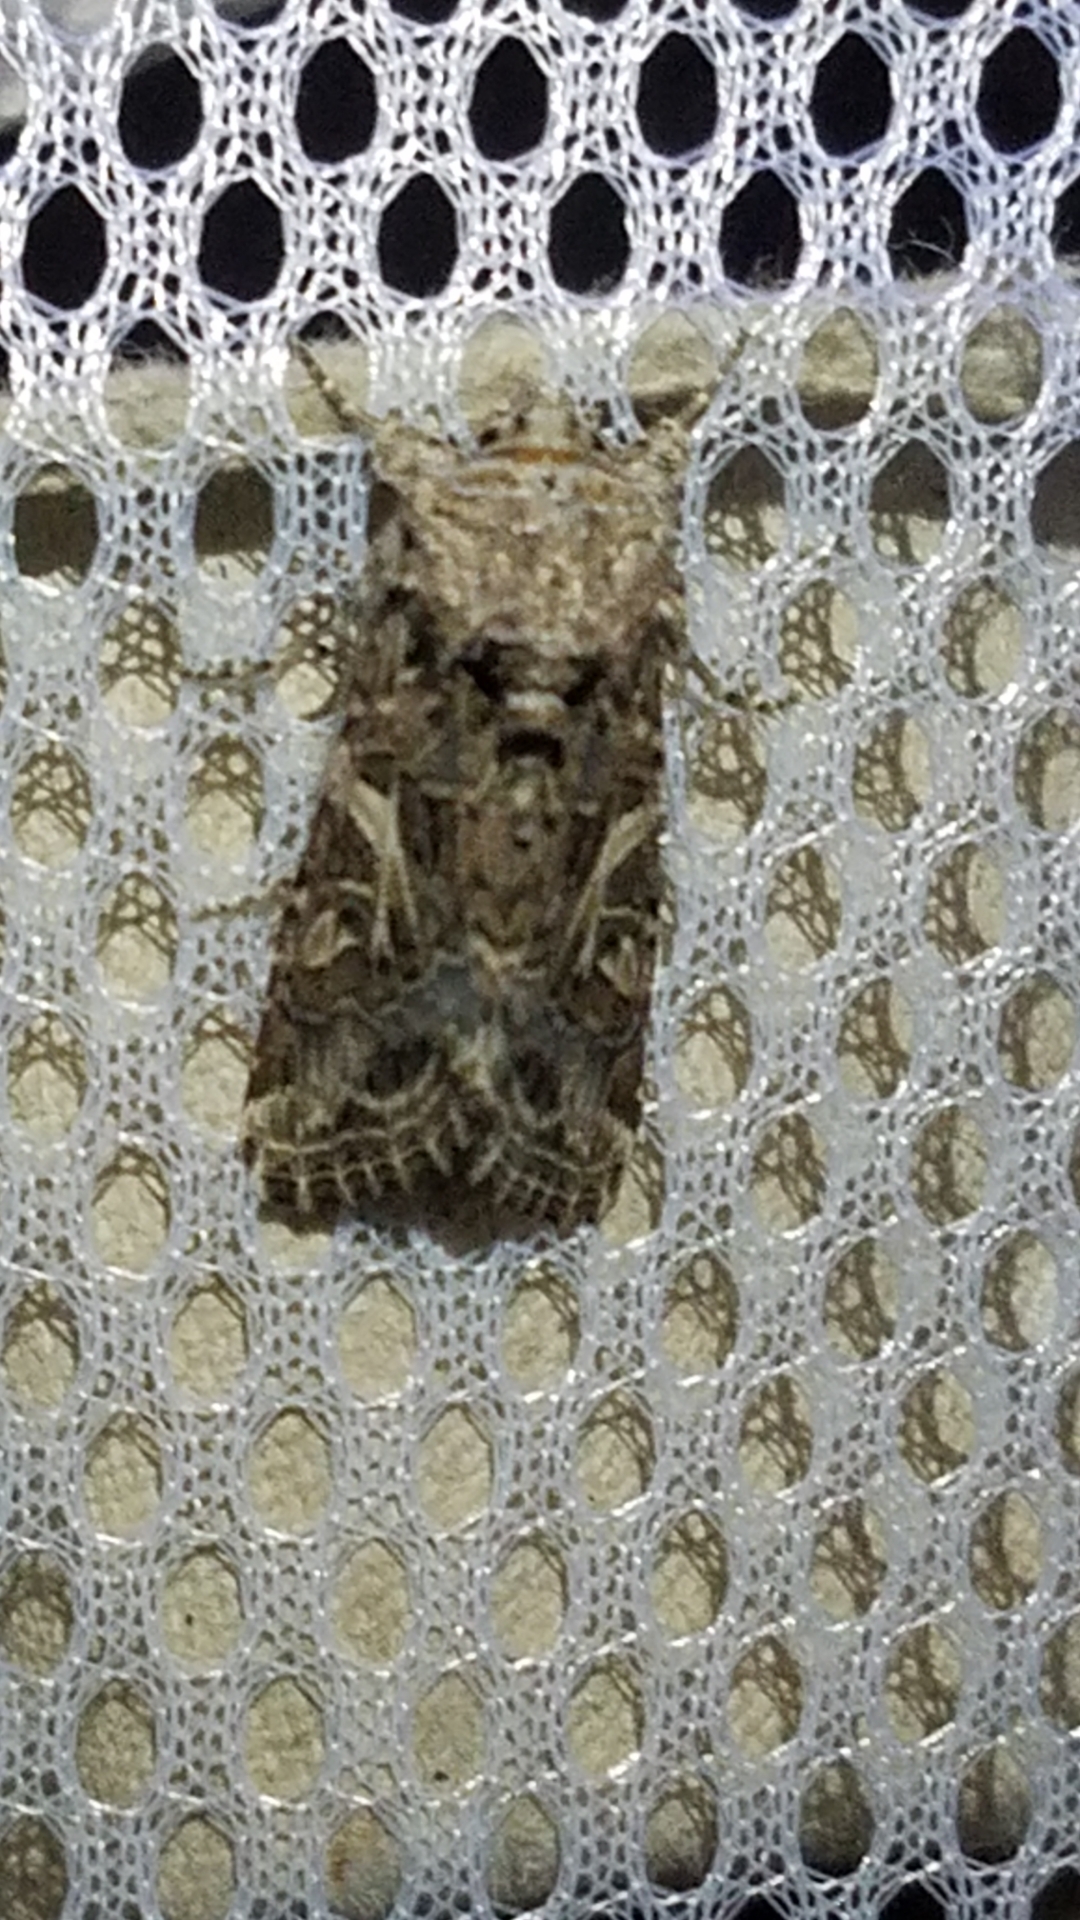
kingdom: Animalia
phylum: Arthropoda
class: Insecta
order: Lepidoptera
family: Noctuidae
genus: Spodoptera
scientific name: Spodoptera praefica
